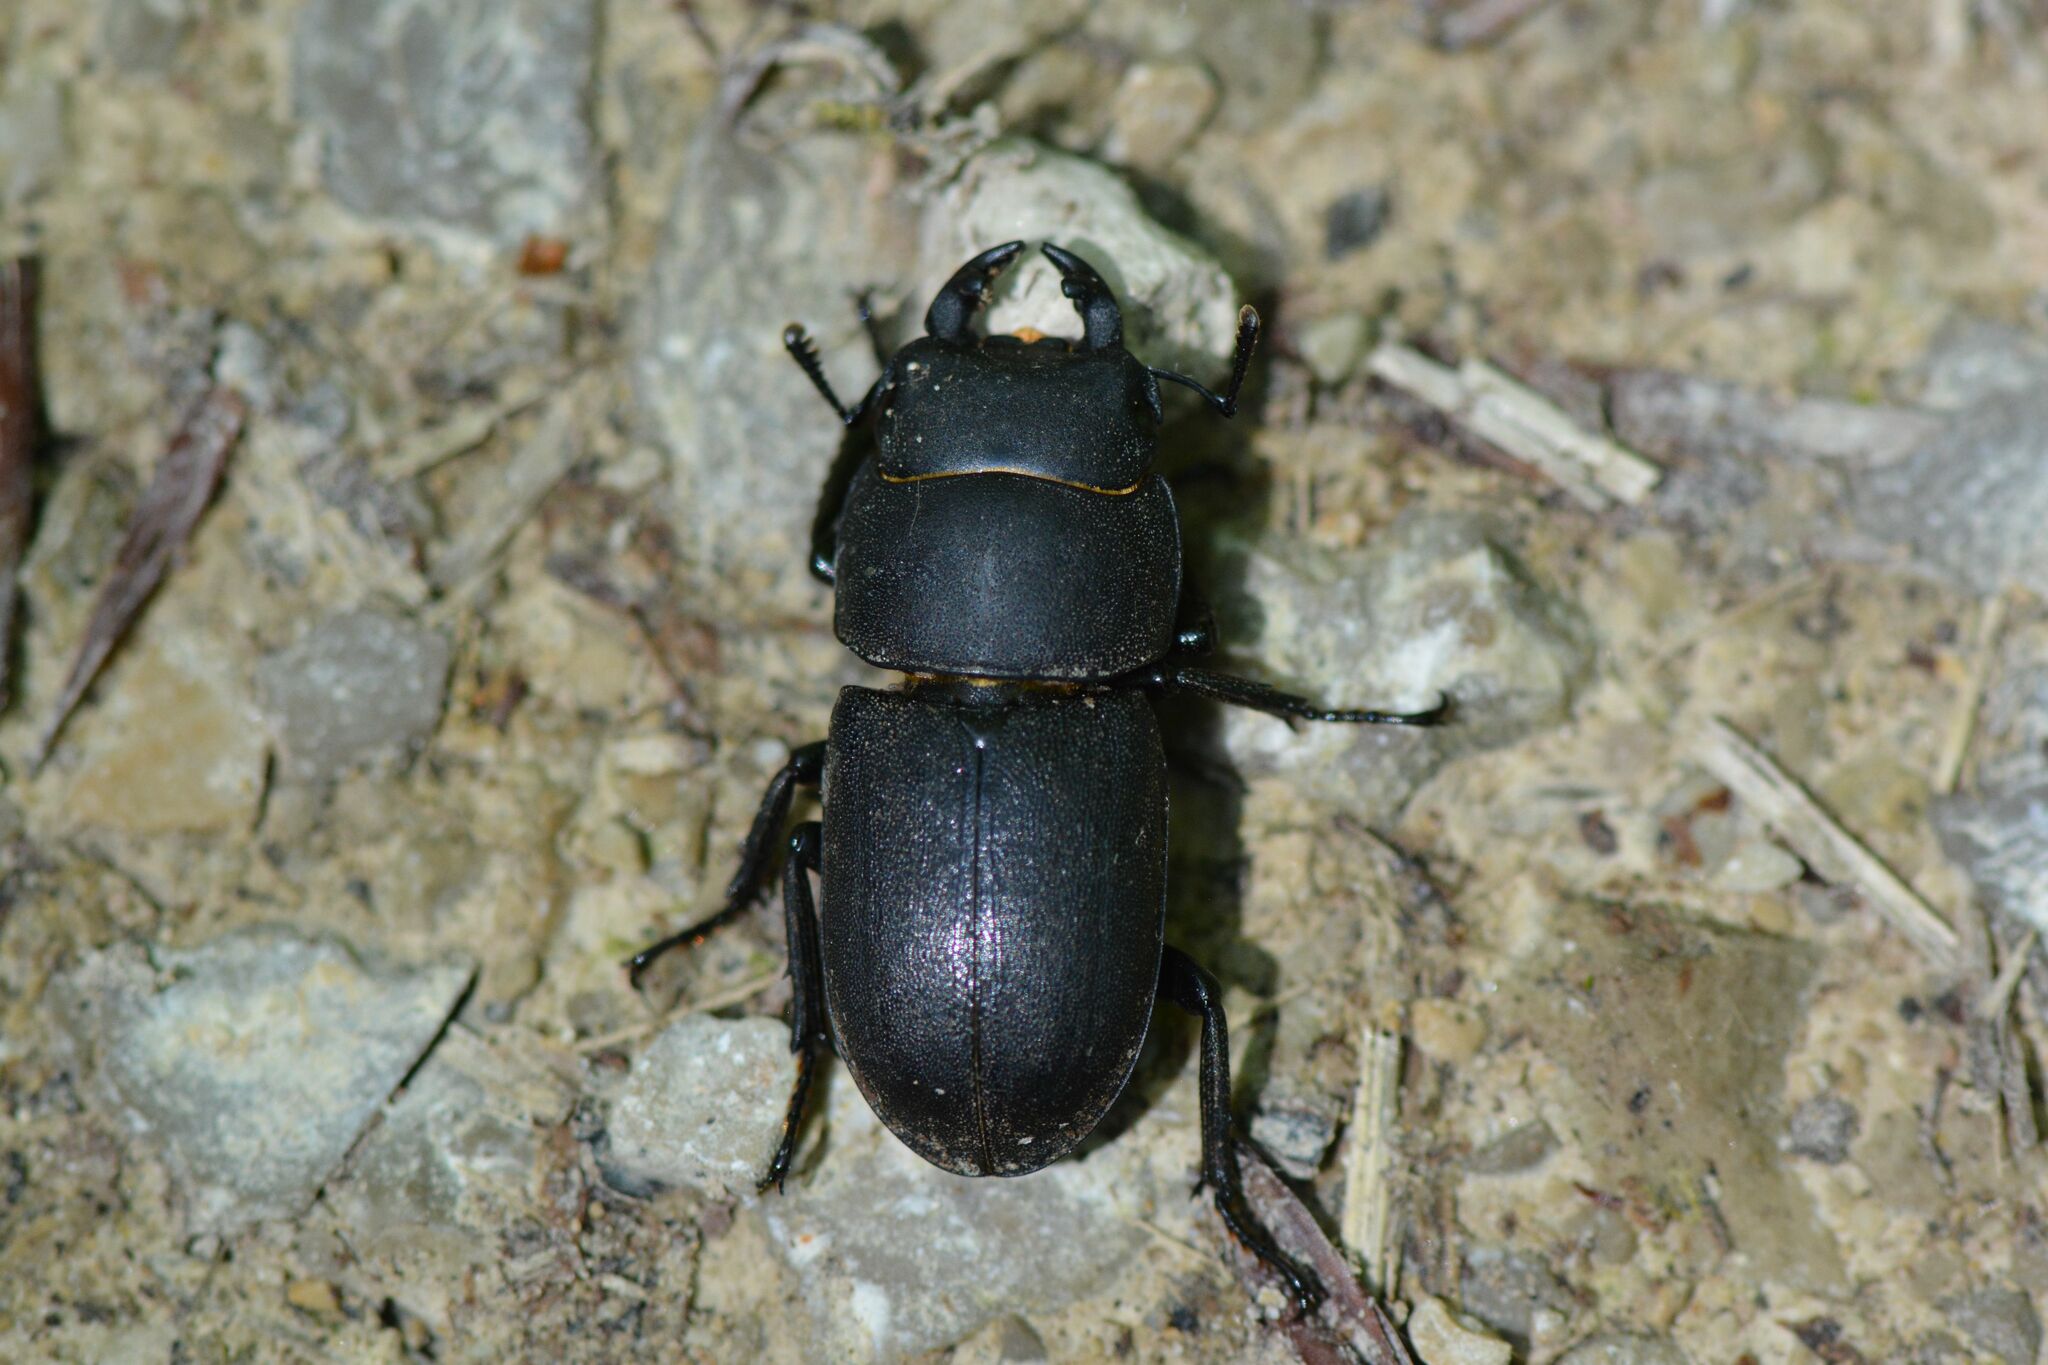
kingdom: Animalia
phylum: Arthropoda
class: Insecta
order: Coleoptera
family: Lucanidae
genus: Dorcus
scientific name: Dorcus parallelipipedus
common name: Lesser stag beetle
